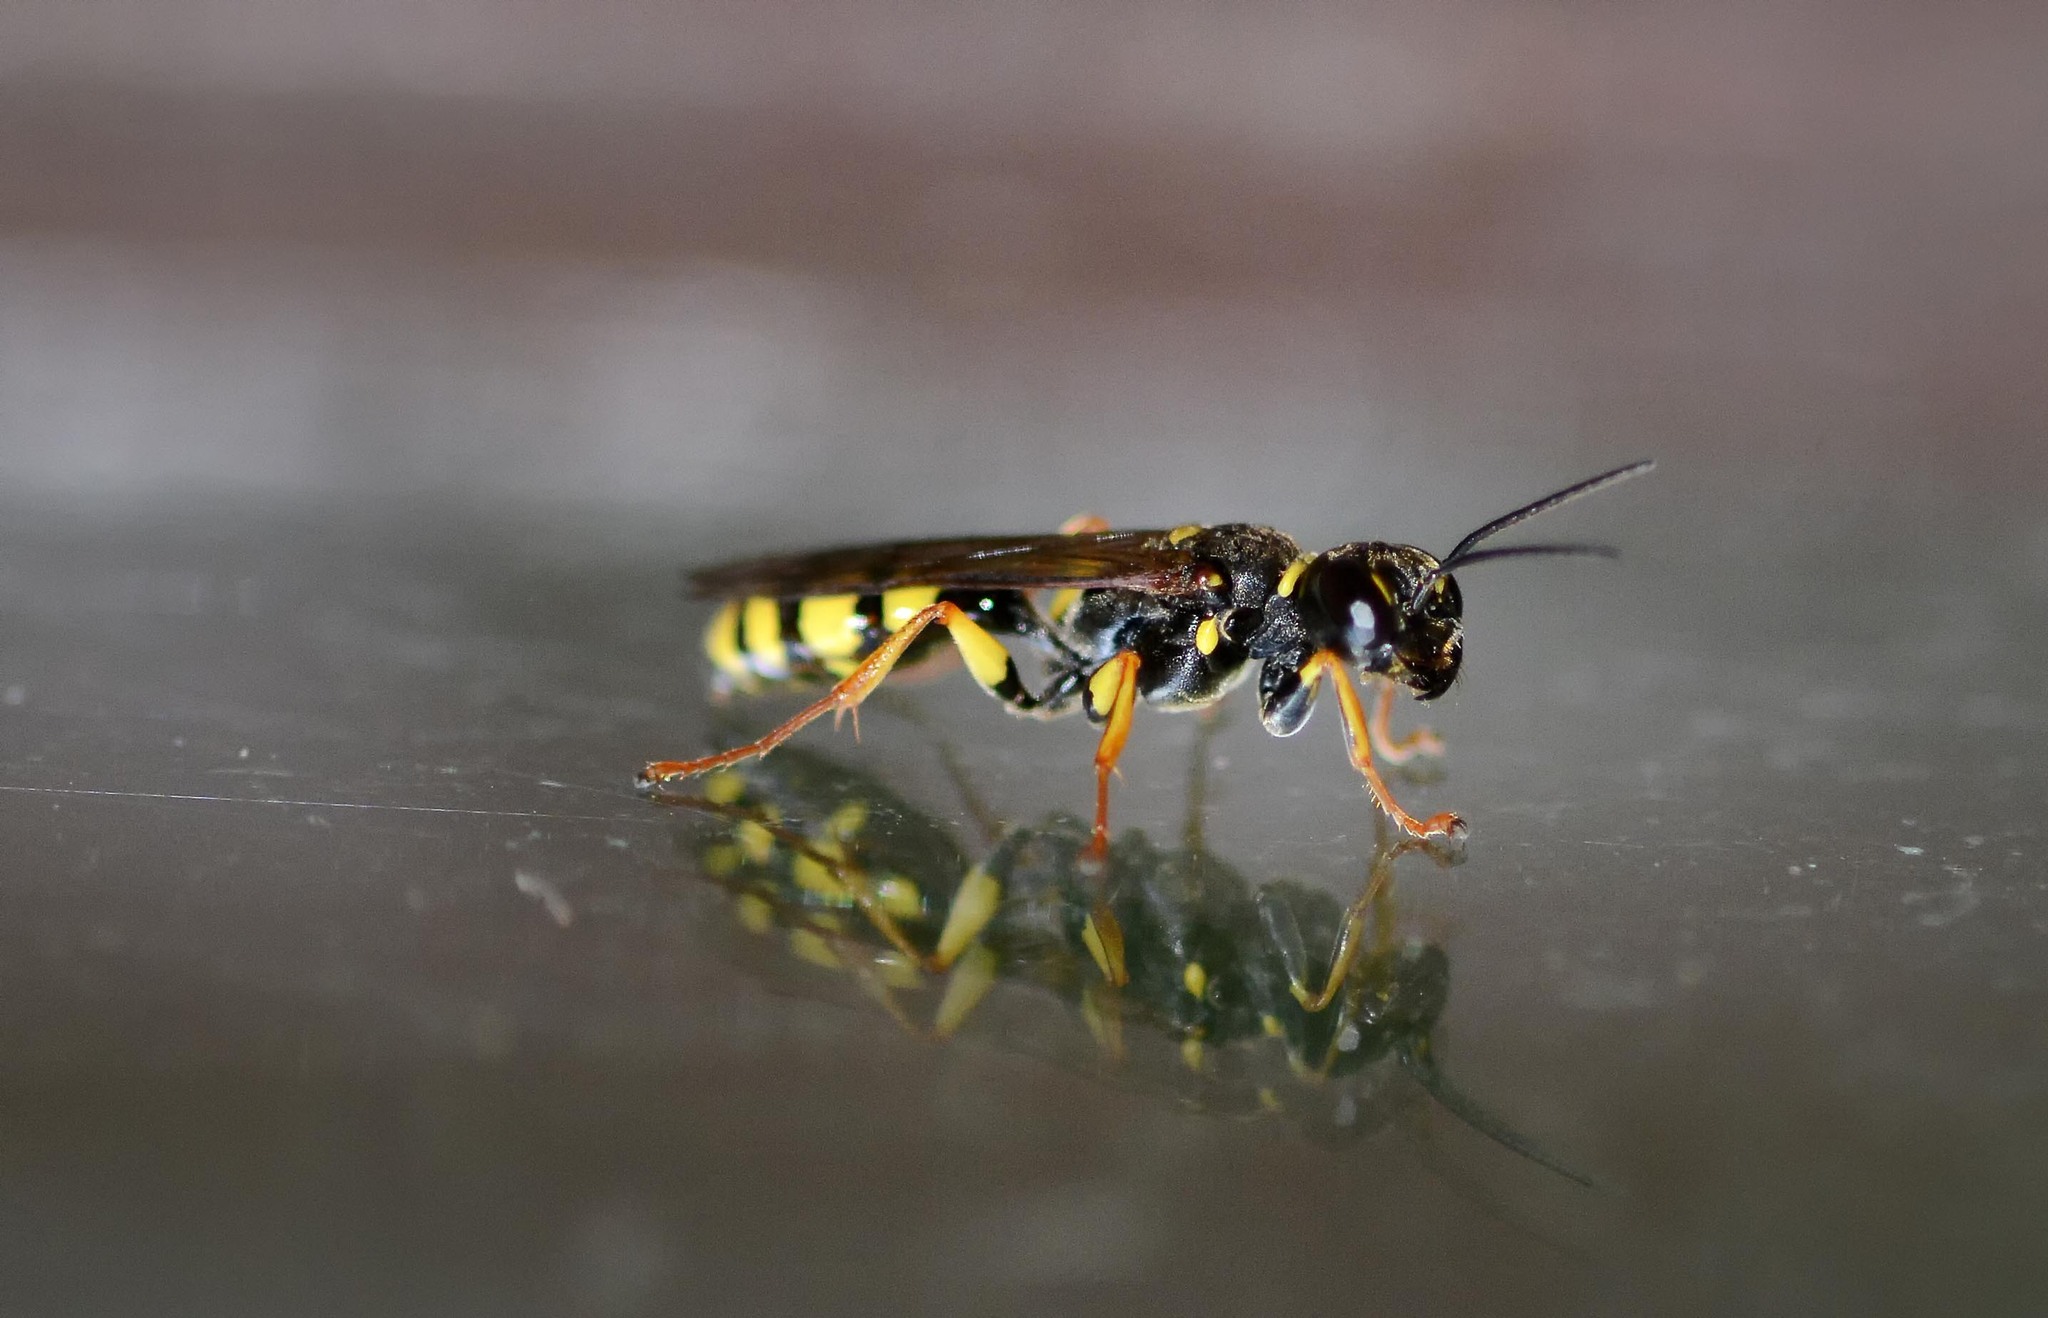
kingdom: Animalia
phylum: Arthropoda
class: Insecta
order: Hymenoptera
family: Crabronidae
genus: Mellinus
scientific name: Mellinus arvensis
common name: Field digger wasp
